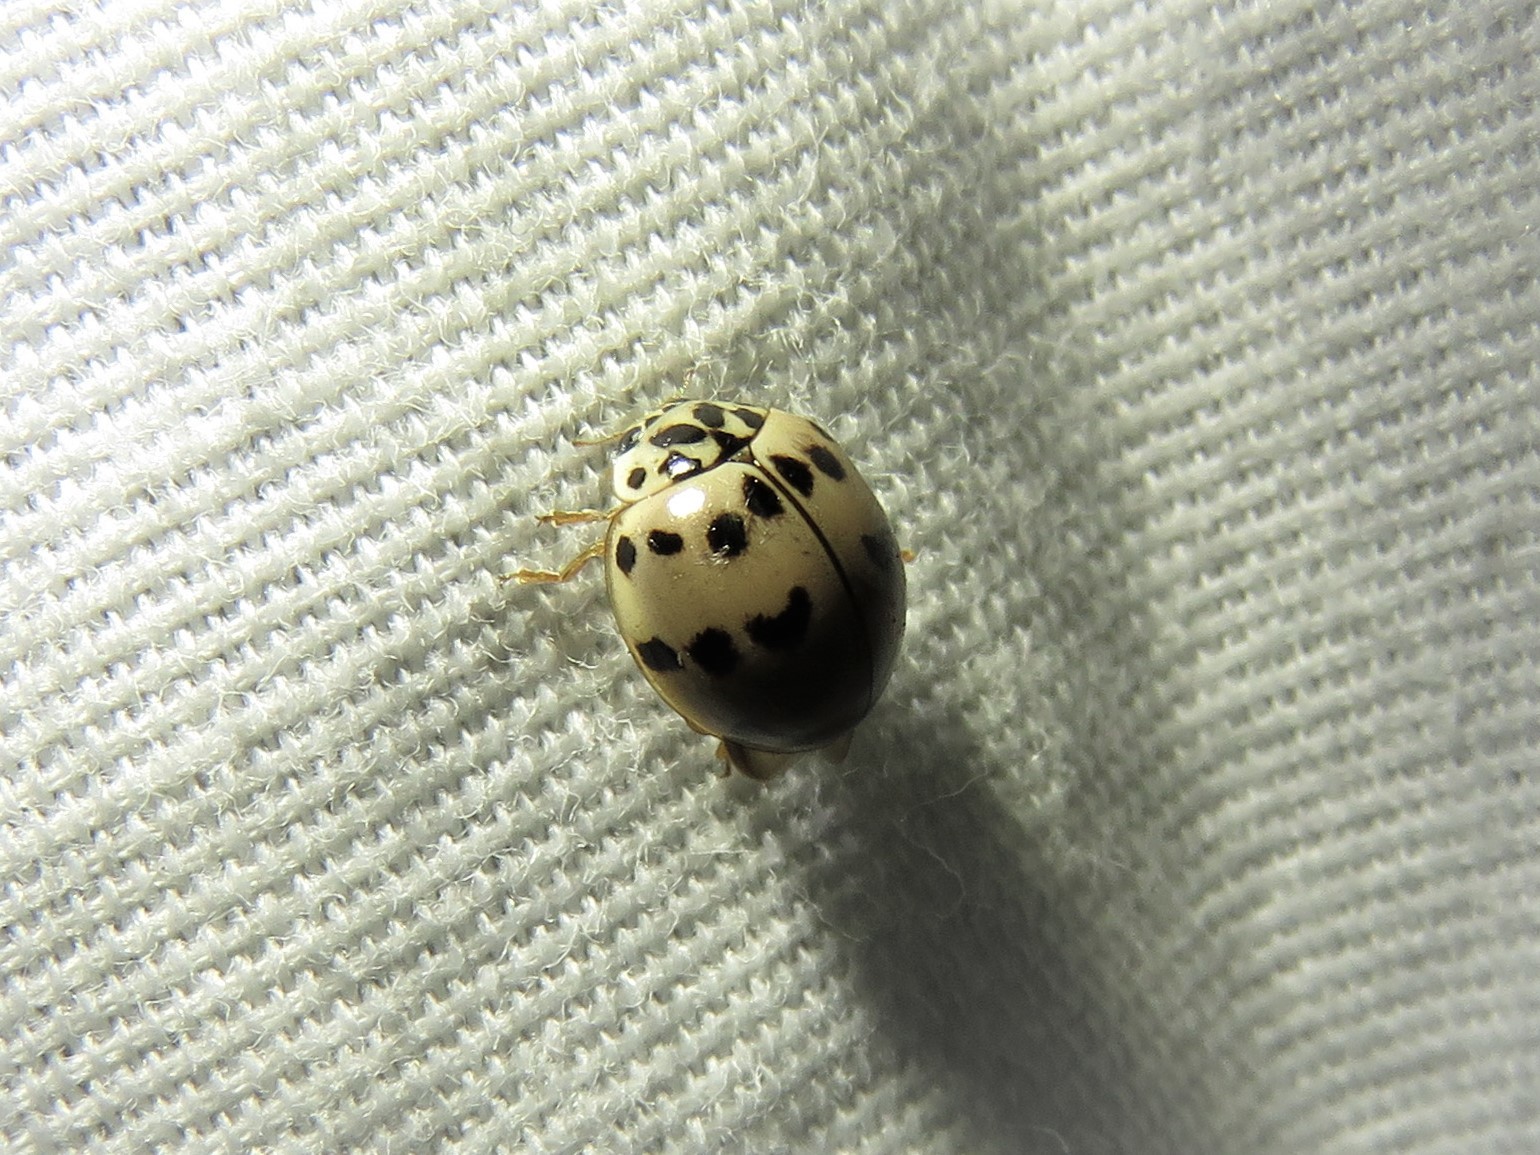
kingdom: Animalia
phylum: Arthropoda
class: Insecta
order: Coleoptera
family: Coccinellidae
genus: Olla
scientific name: Olla v-nigrum
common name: Ashy gray lady beetle
